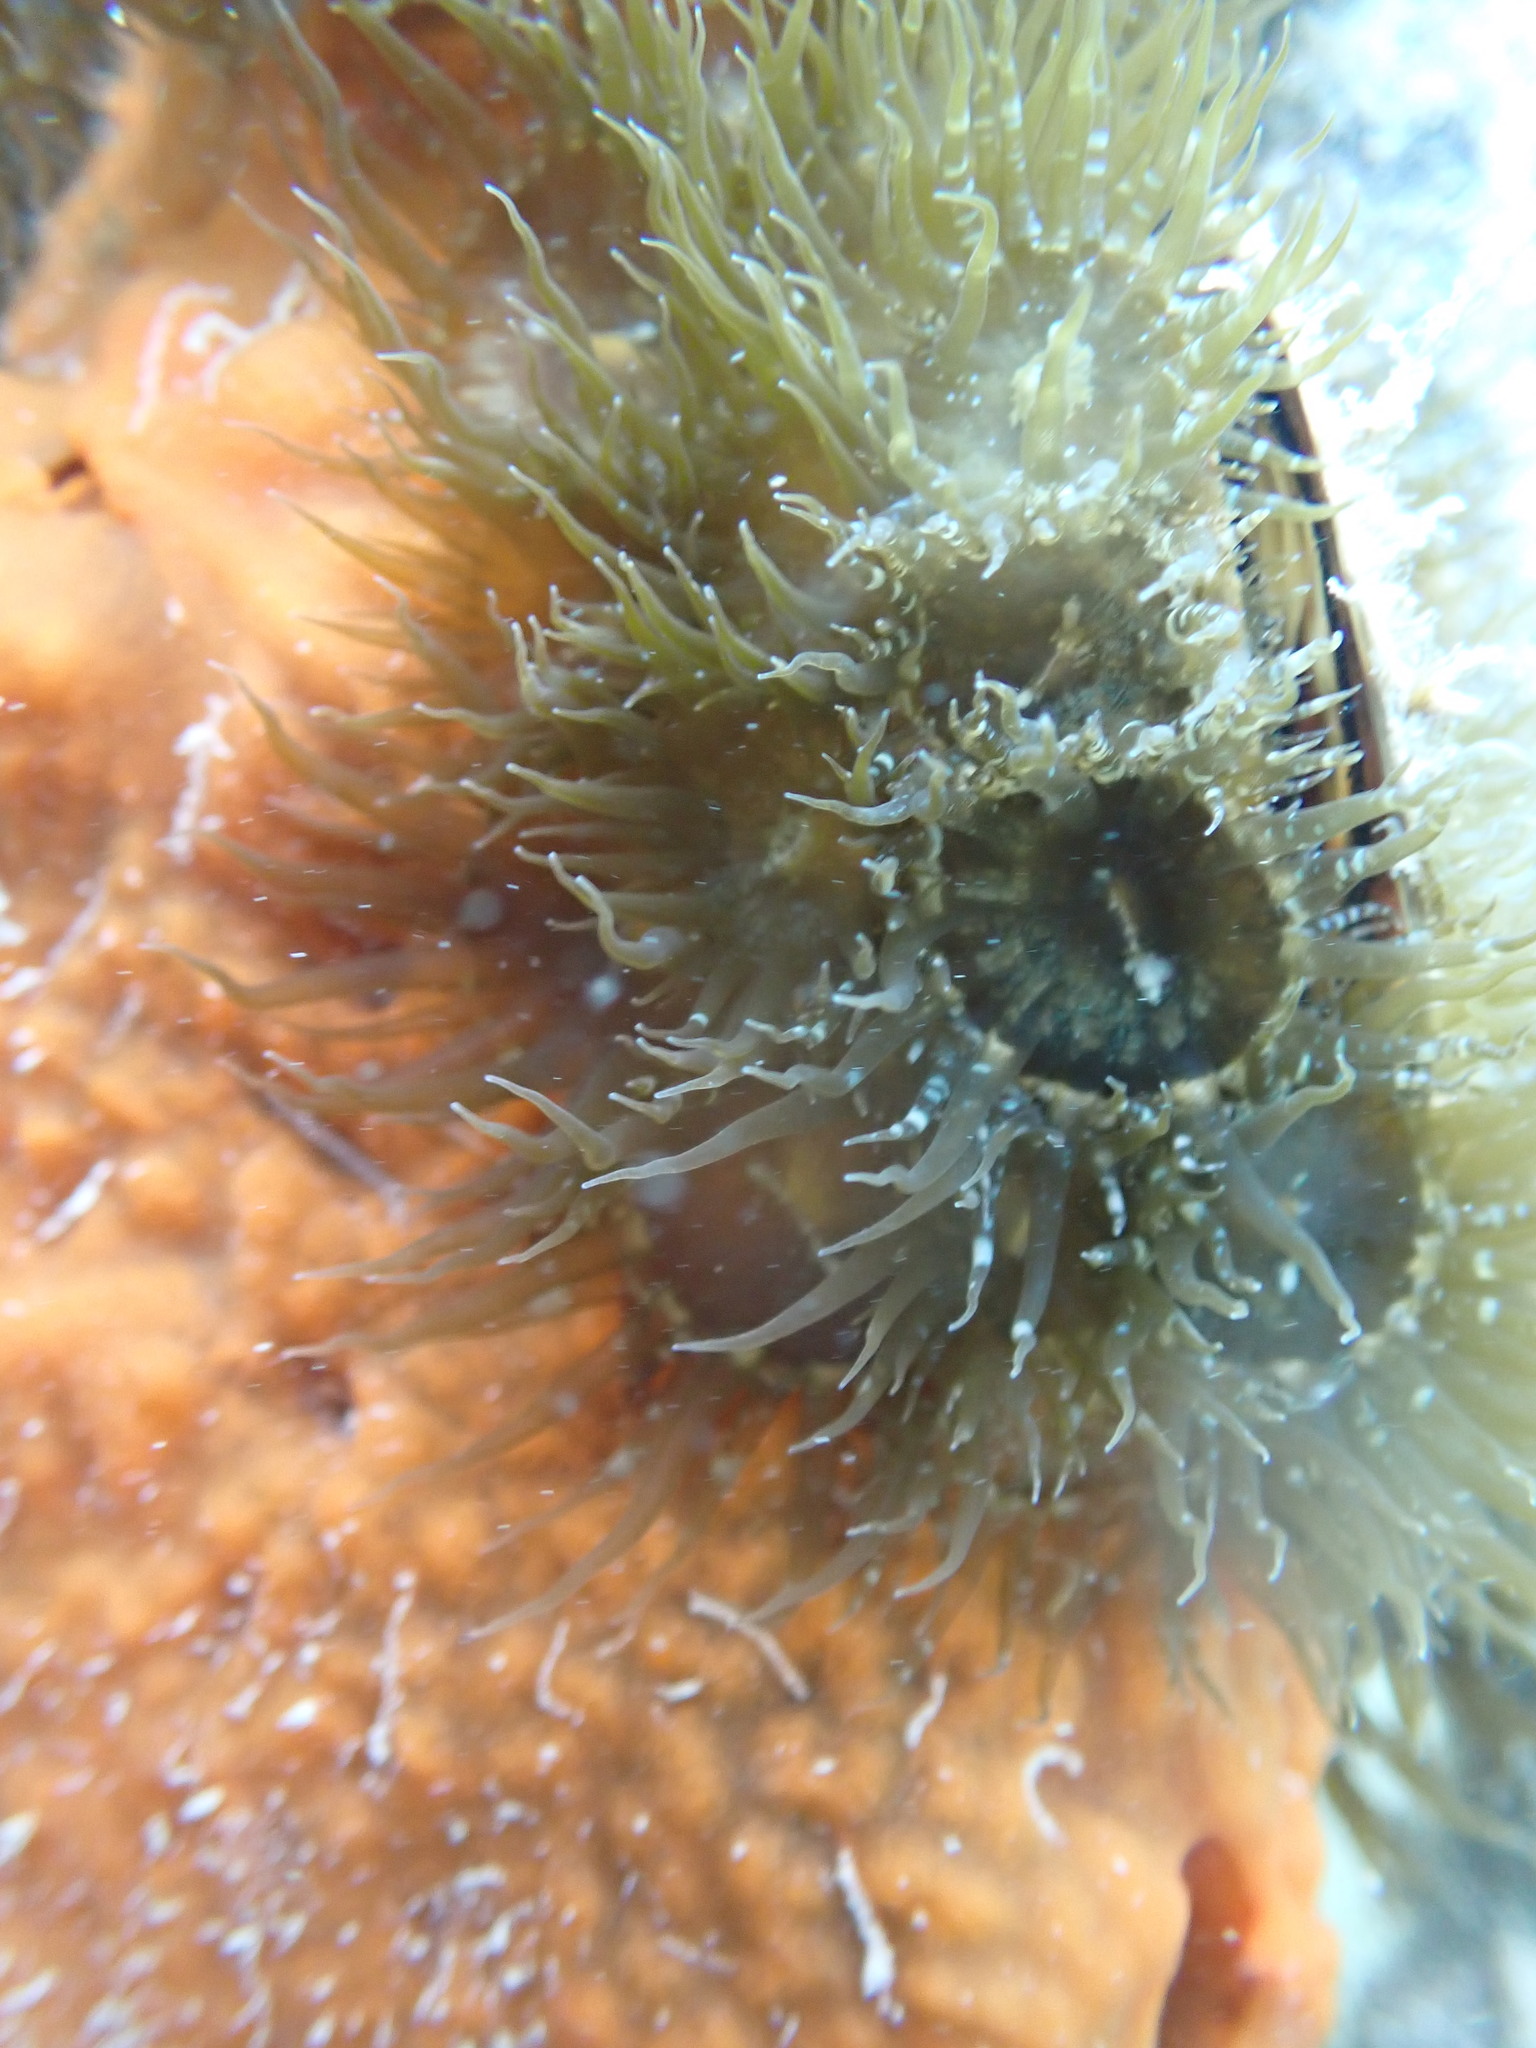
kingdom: Animalia
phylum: Cnidaria
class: Anthozoa
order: Actiniaria
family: Aiptasiidae
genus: Exaiptasia
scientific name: Exaiptasia diaphana
